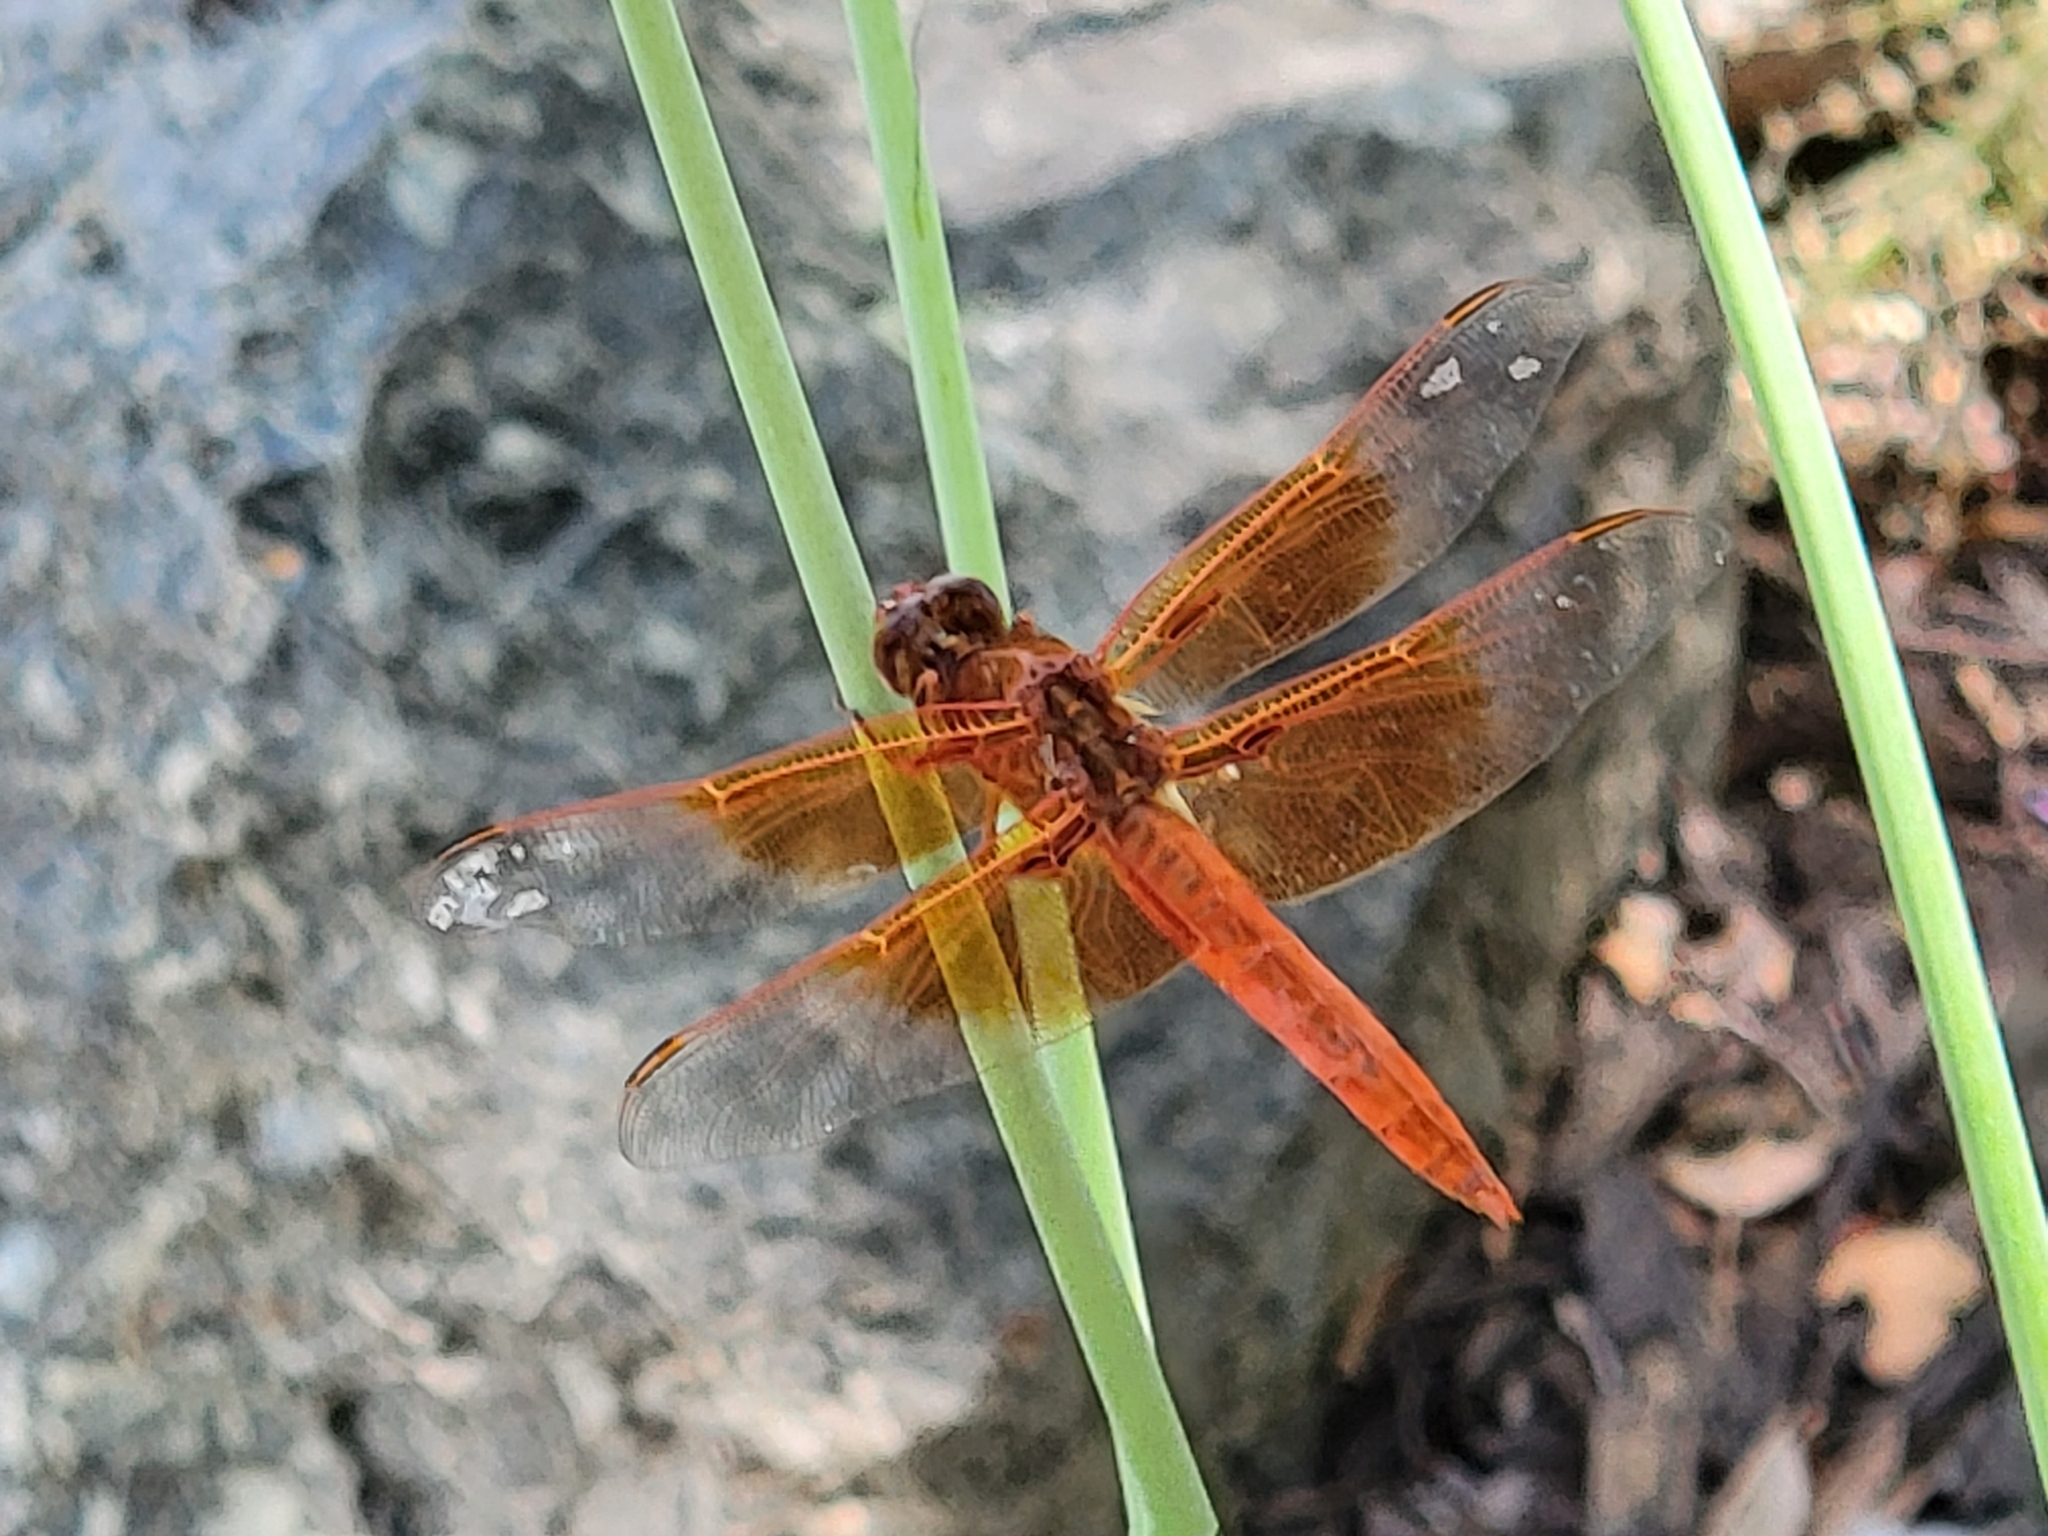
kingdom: Animalia
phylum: Arthropoda
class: Insecta
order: Odonata
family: Libellulidae
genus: Libellula
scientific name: Libellula saturata
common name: Flame skimmer
